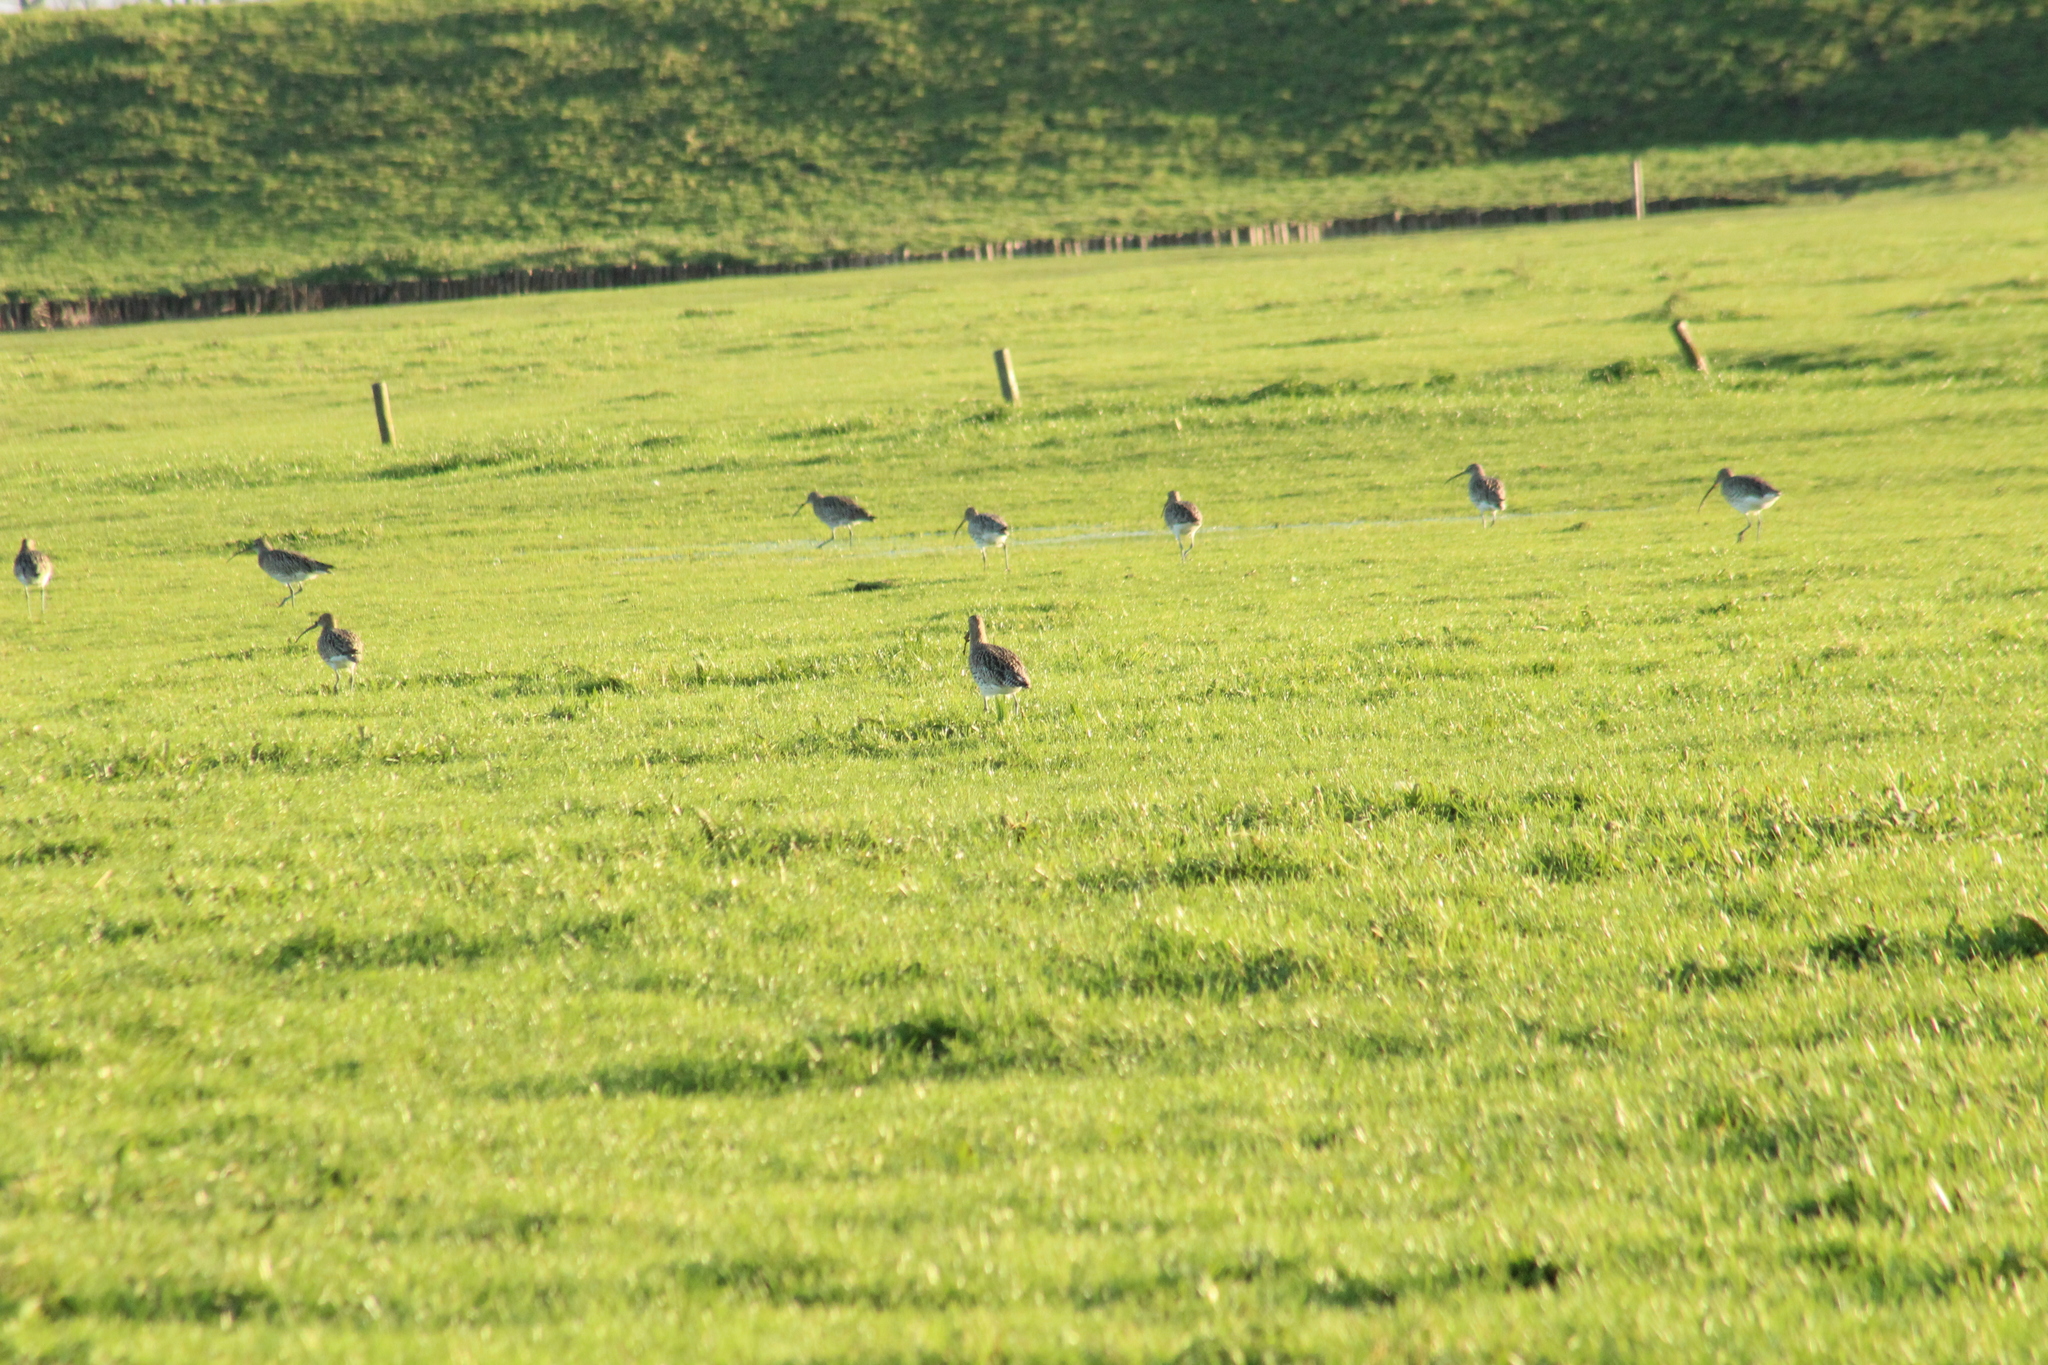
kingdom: Animalia
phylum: Chordata
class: Aves
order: Charadriiformes
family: Scolopacidae
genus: Numenius
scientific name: Numenius arquata
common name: Eurasian curlew
